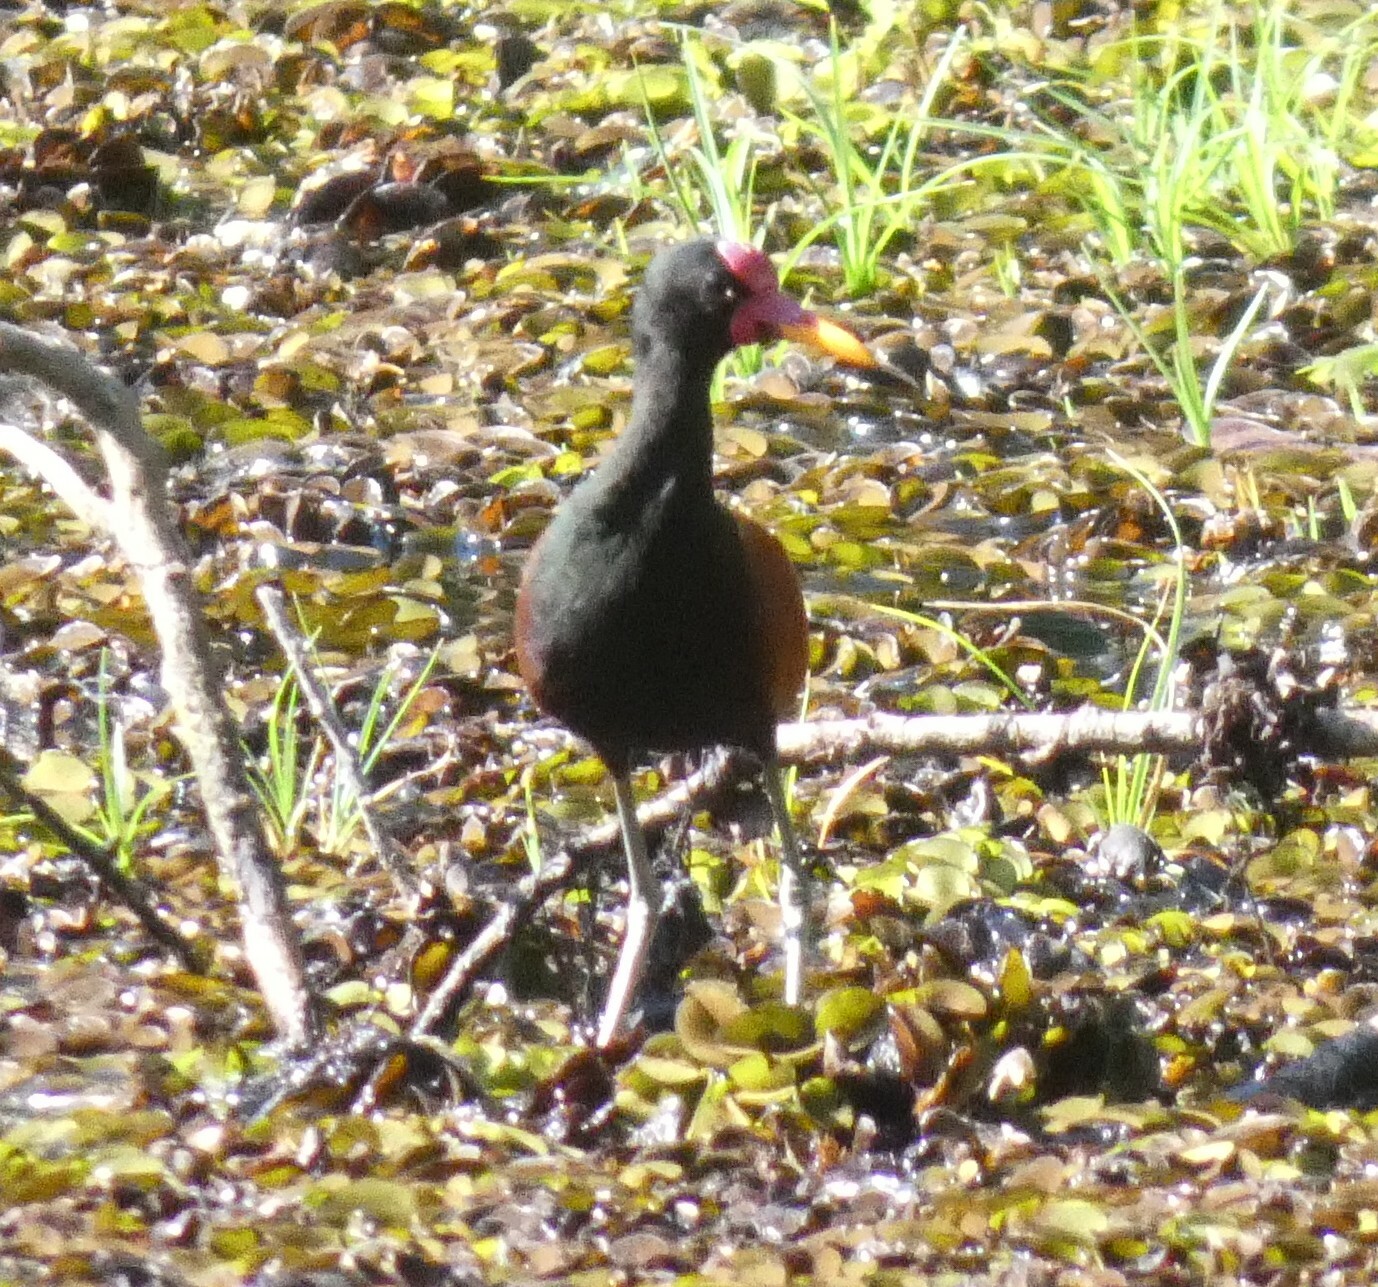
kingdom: Animalia
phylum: Chordata
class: Aves
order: Charadriiformes
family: Jacanidae
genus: Jacana
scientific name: Jacana jacana
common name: Wattled jacana
